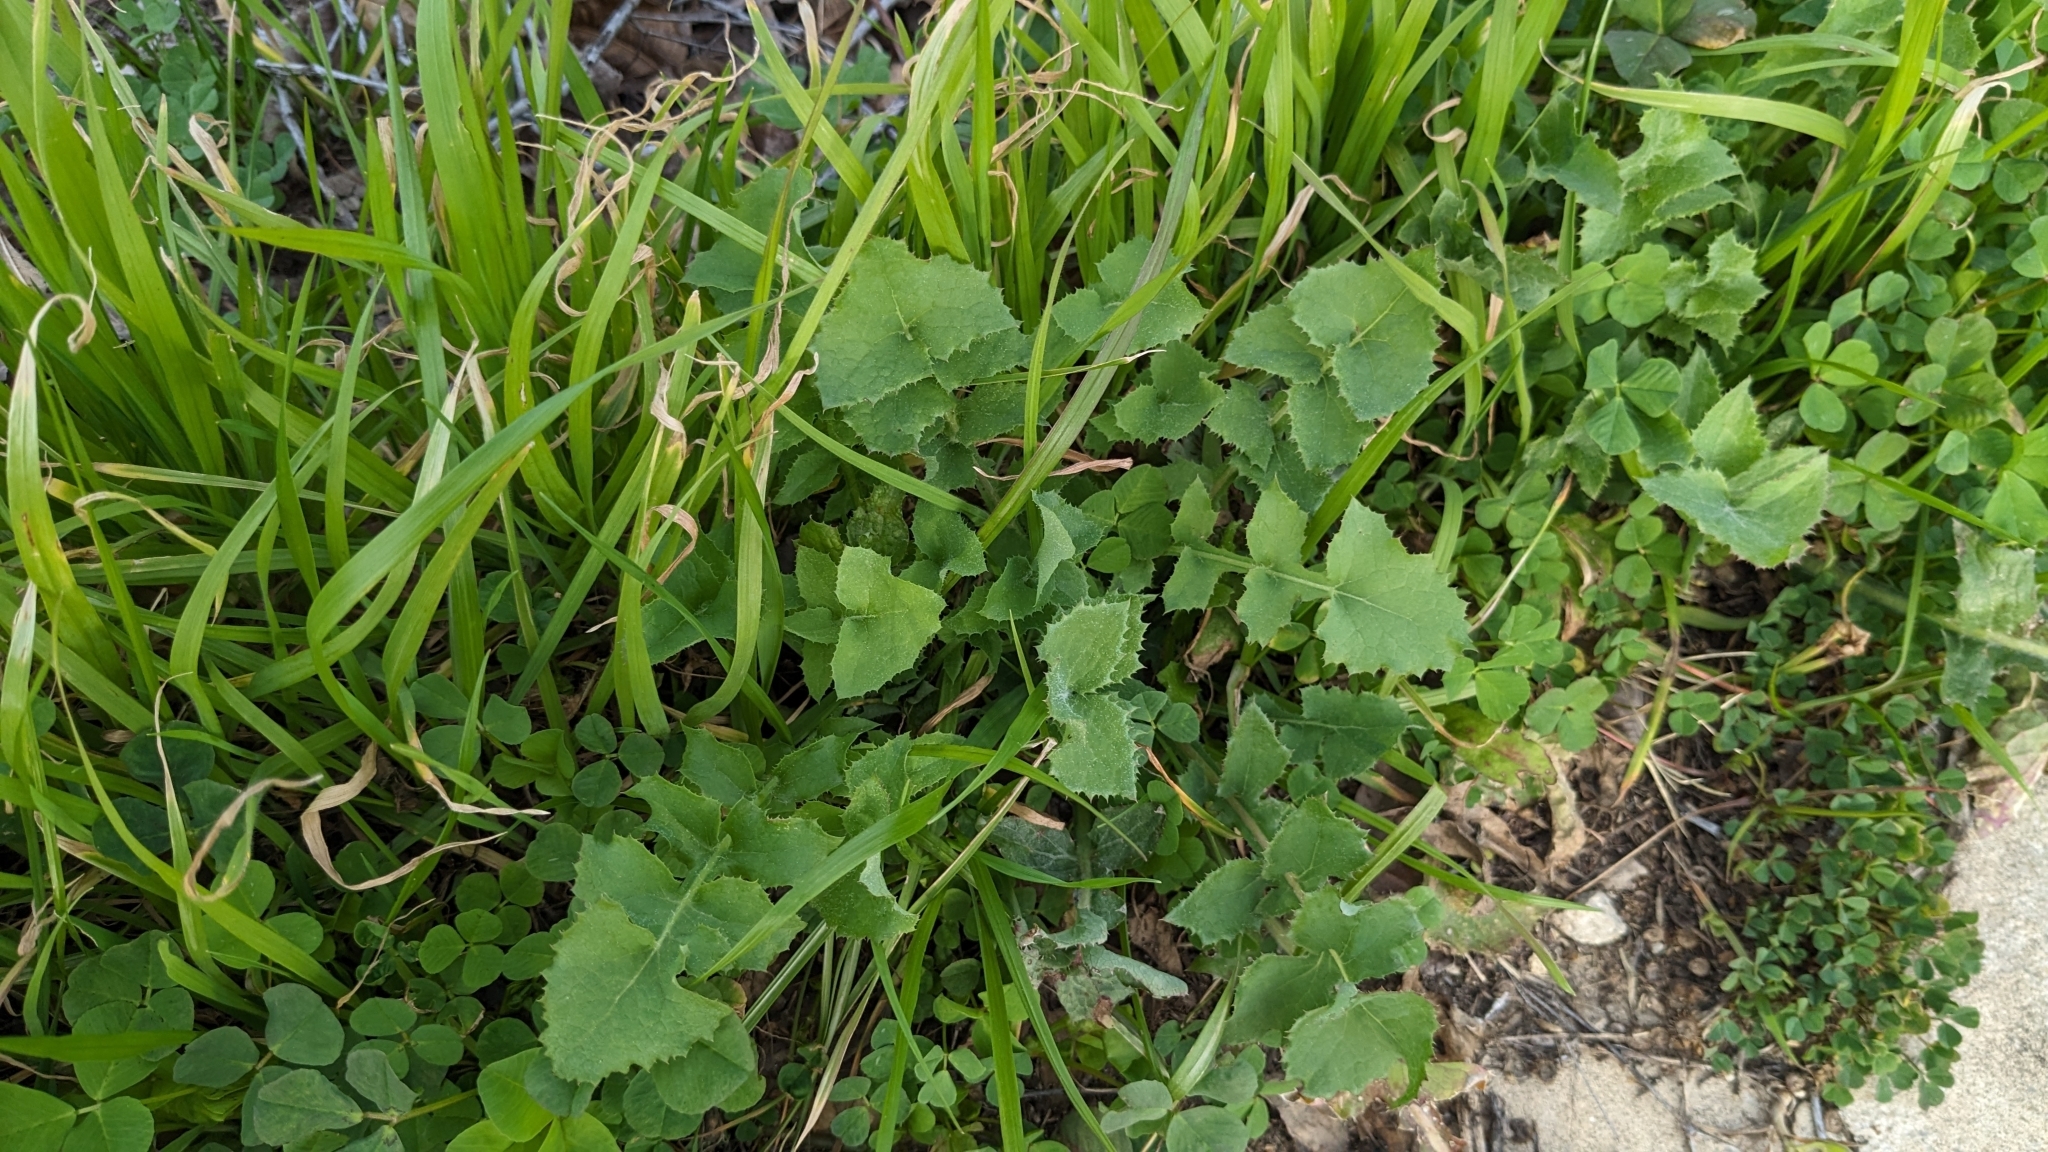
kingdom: Plantae
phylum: Tracheophyta
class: Magnoliopsida
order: Asterales
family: Asteraceae
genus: Sonchus
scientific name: Sonchus oleraceus
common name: Common sowthistle
